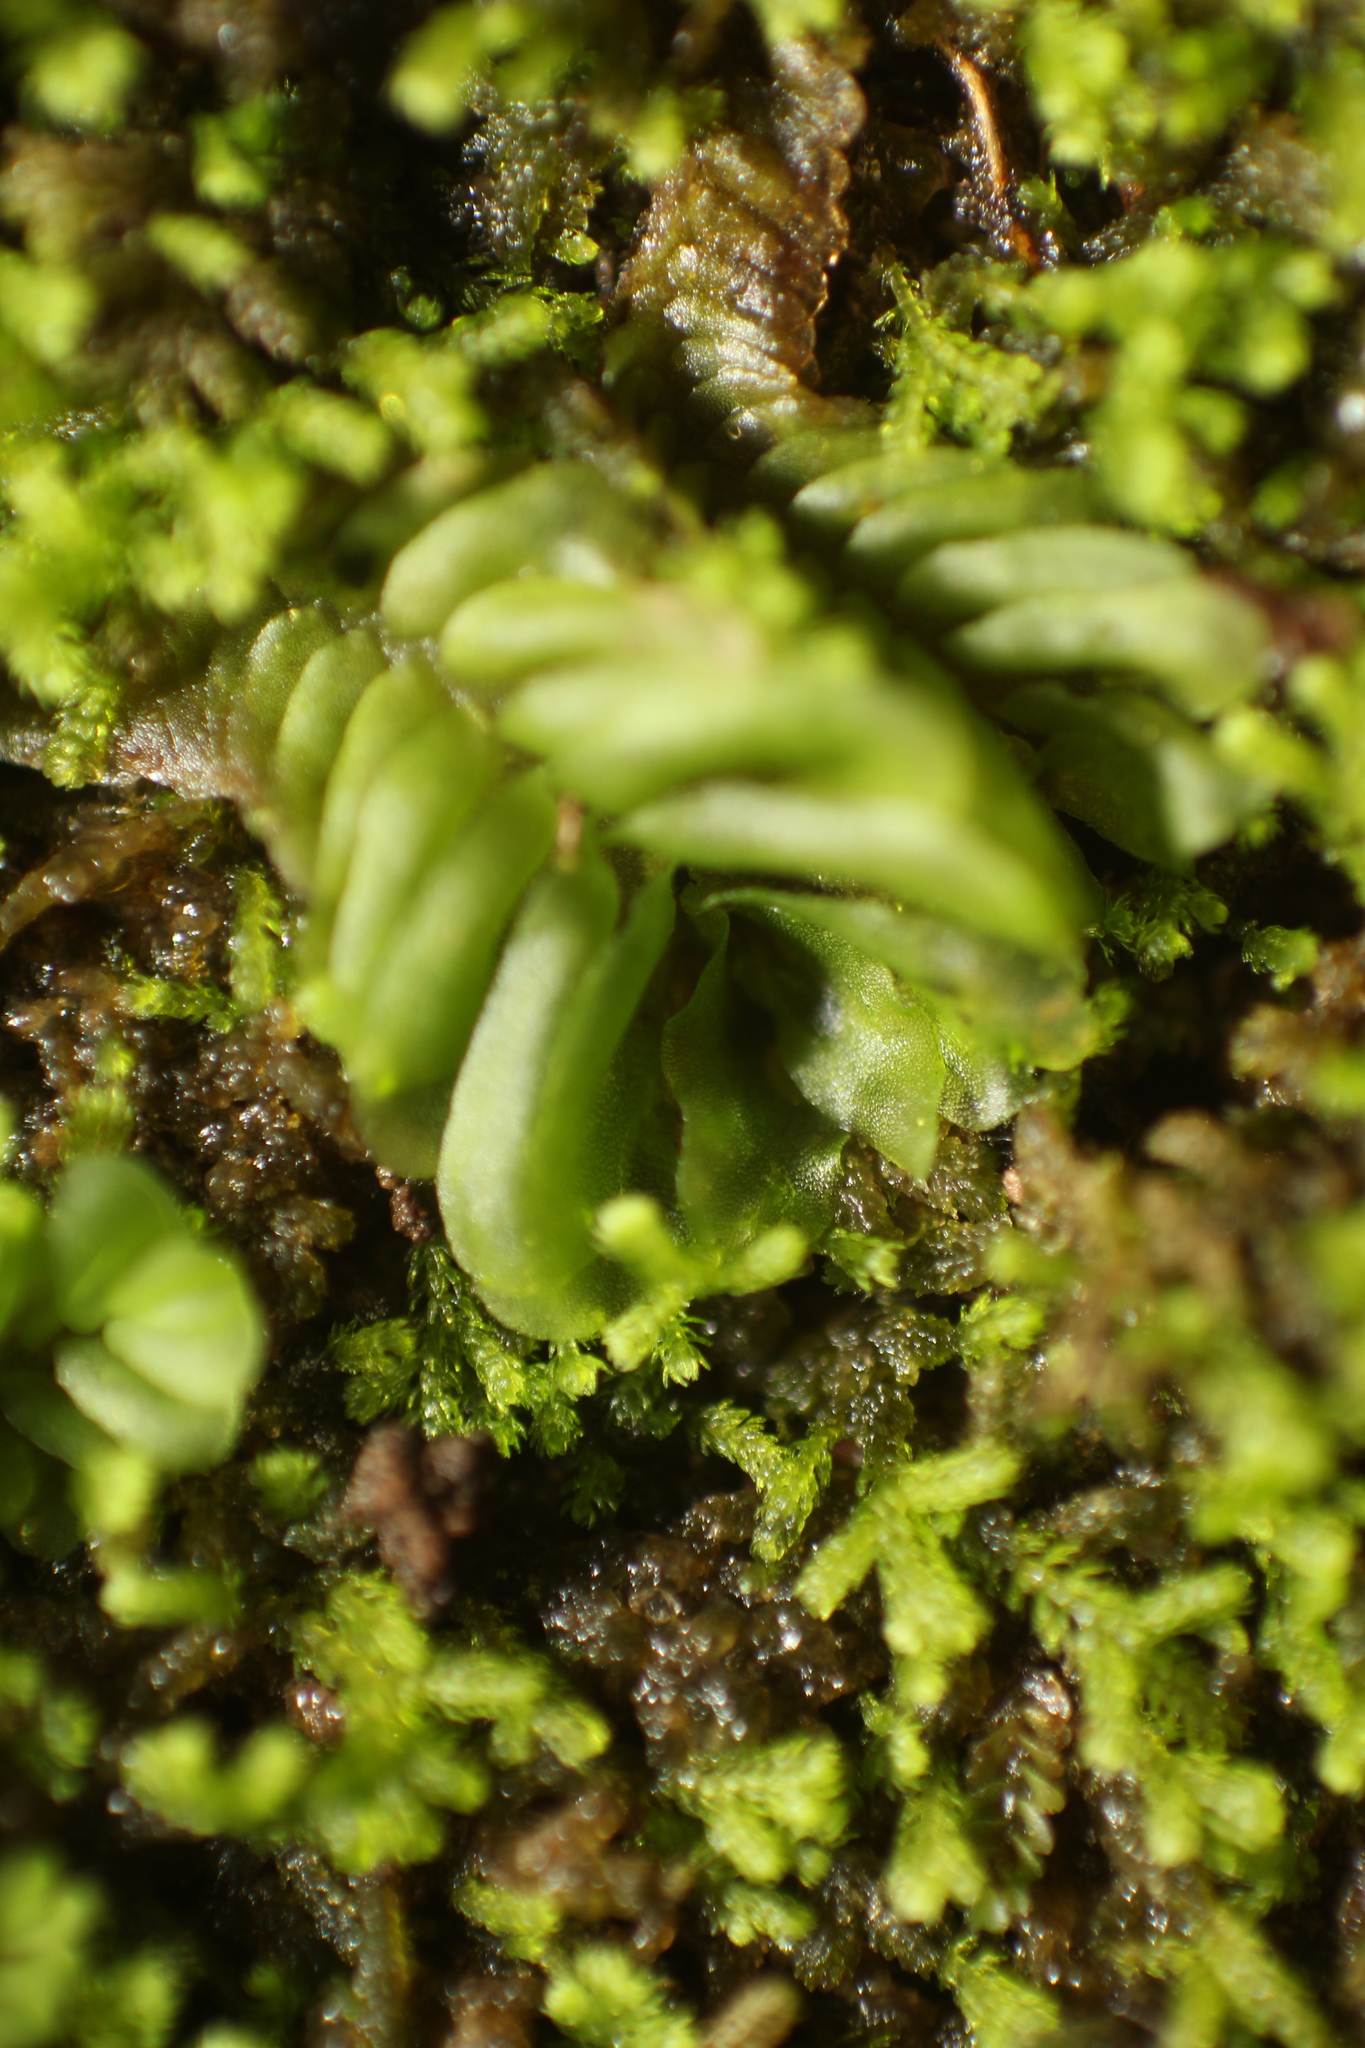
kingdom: Plantae
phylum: Marchantiophyta
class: Jungermanniopsida
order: Jungermanniales
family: Acrobolbaceae
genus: Lethocolea
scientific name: Lethocolea pansa
